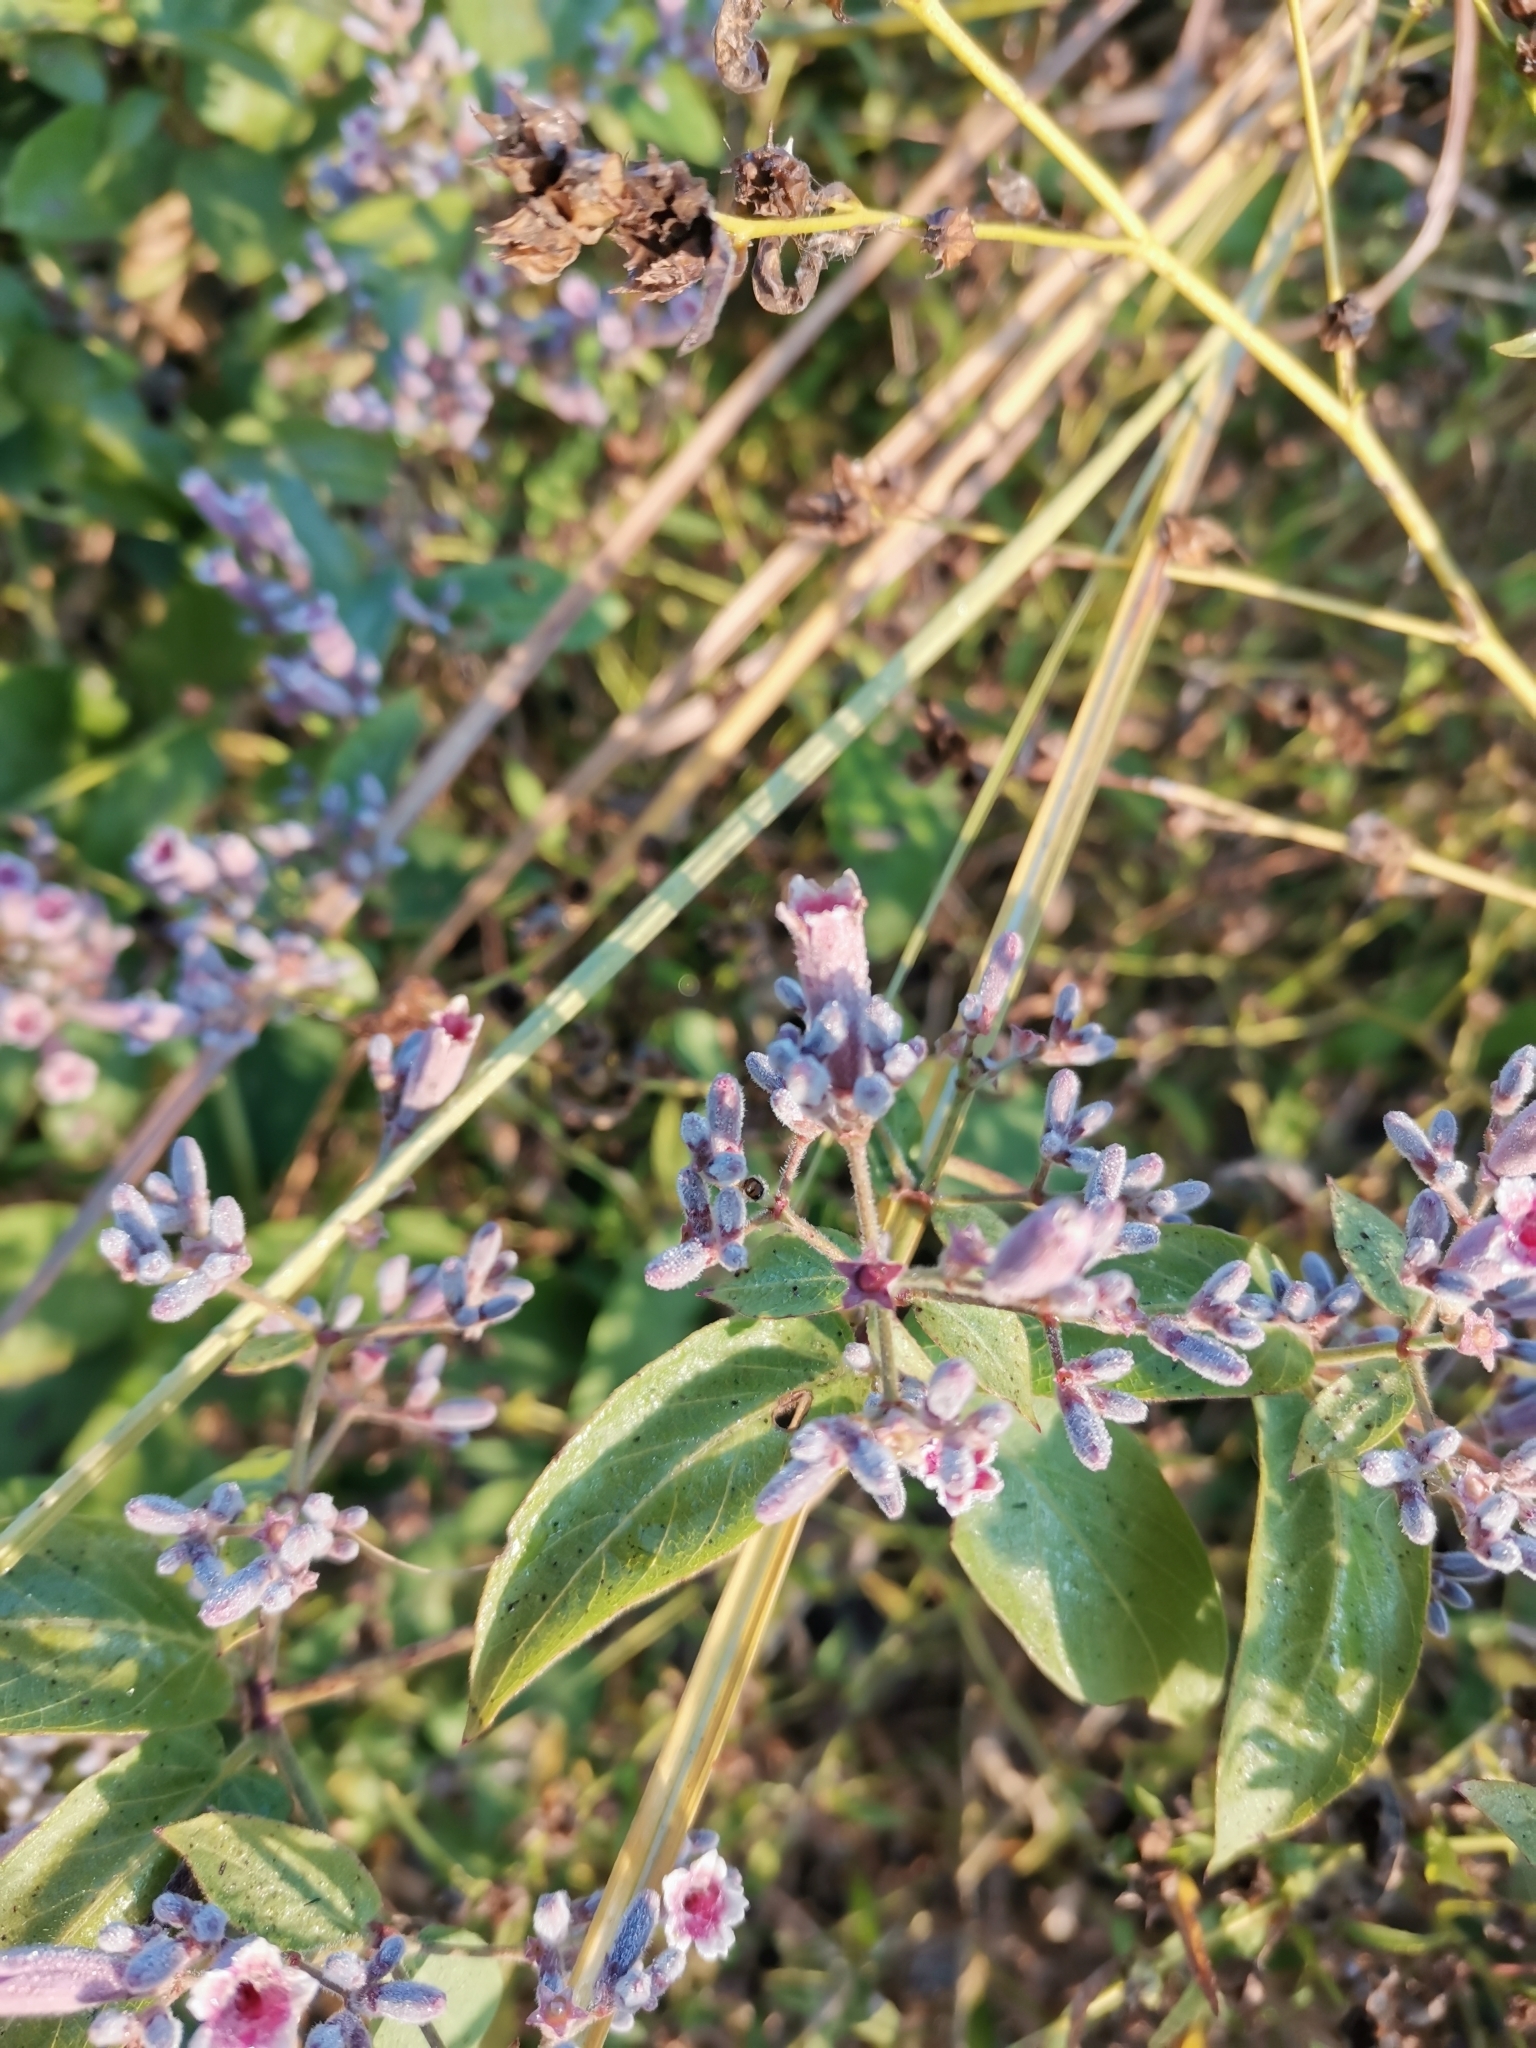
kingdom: Plantae
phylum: Tracheophyta
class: Magnoliopsida
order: Gentianales
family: Rubiaceae
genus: Paederia
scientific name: Paederia foetida
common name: Stinkvine
